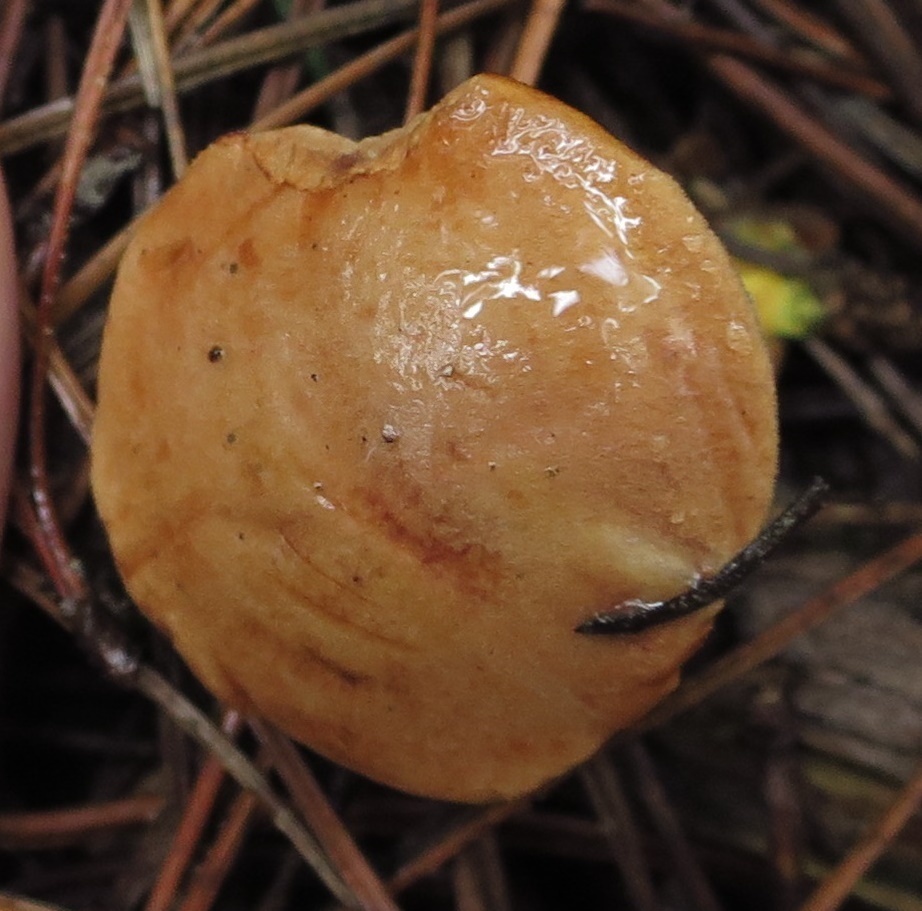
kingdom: Fungi
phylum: Basidiomycota
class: Agaricomycetes
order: Boletales
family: Boletaceae
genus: Chalciporus
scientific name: Chalciporus piperatus
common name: Peppery bolete
